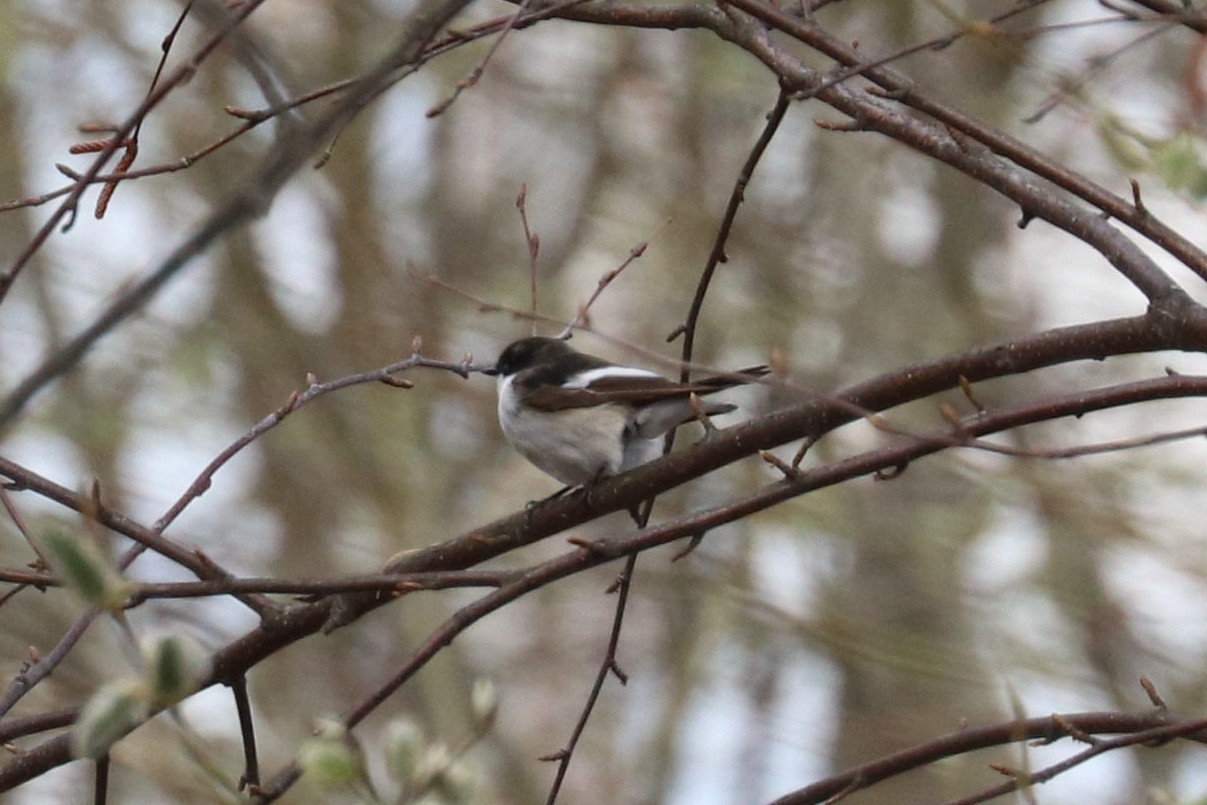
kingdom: Animalia
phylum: Chordata
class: Aves
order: Passeriformes
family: Muscicapidae
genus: Ficedula
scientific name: Ficedula hypoleuca
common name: European pied flycatcher
